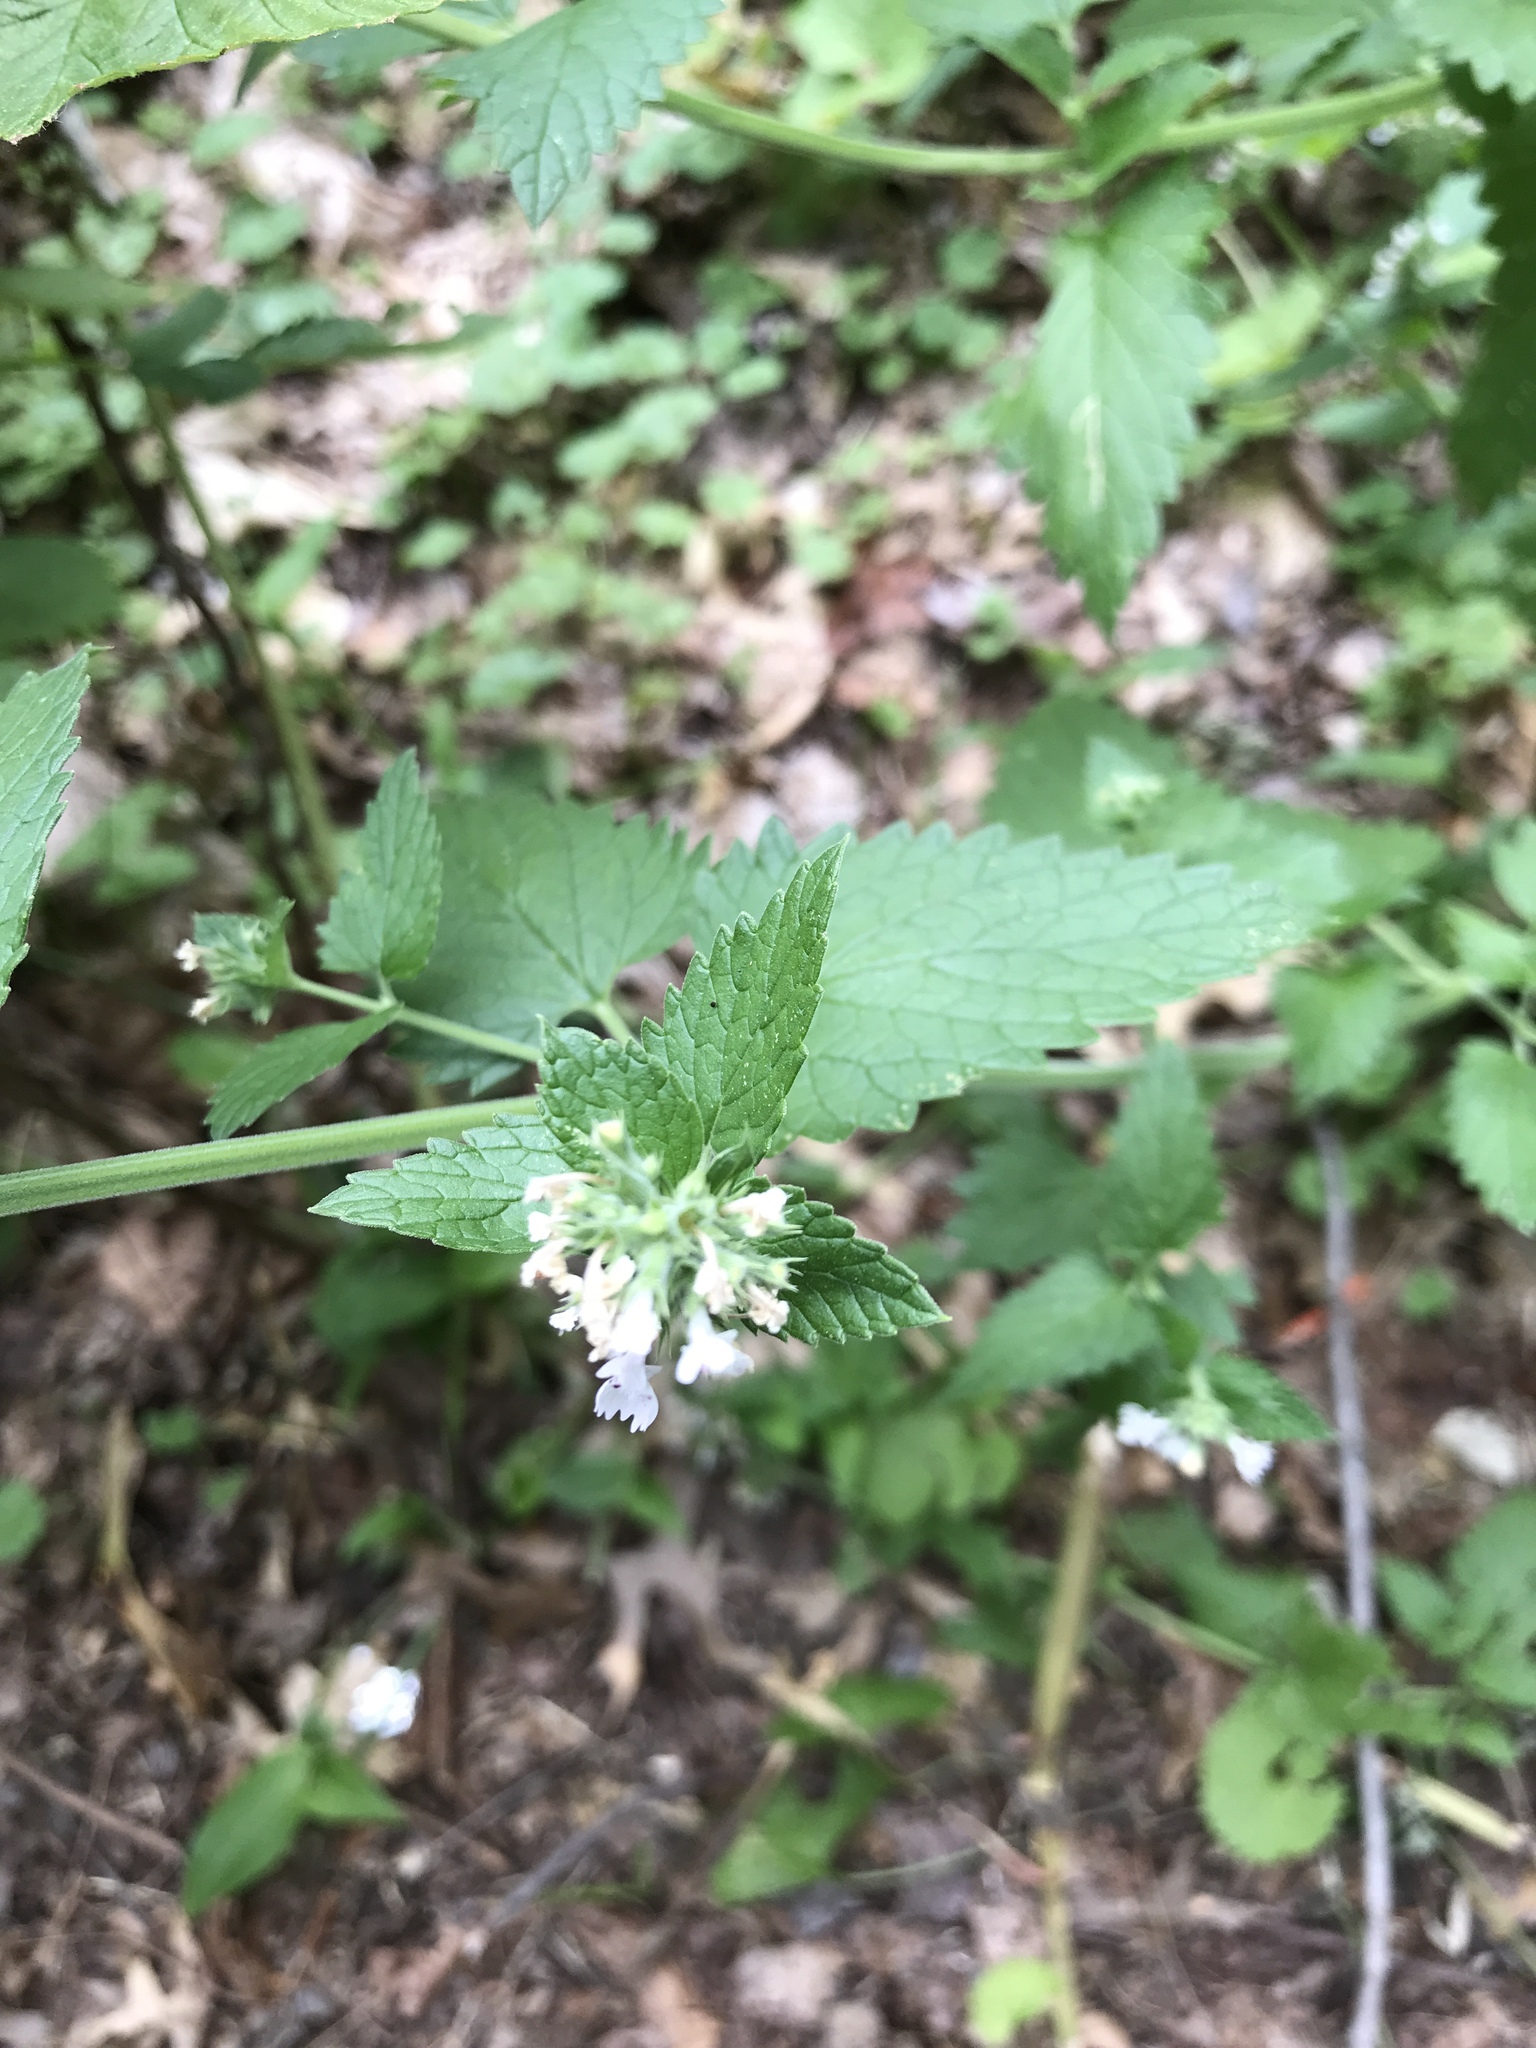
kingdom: Plantae
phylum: Tracheophyta
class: Magnoliopsida
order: Lamiales
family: Lamiaceae
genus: Nepeta
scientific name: Nepeta cataria
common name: Catnip
